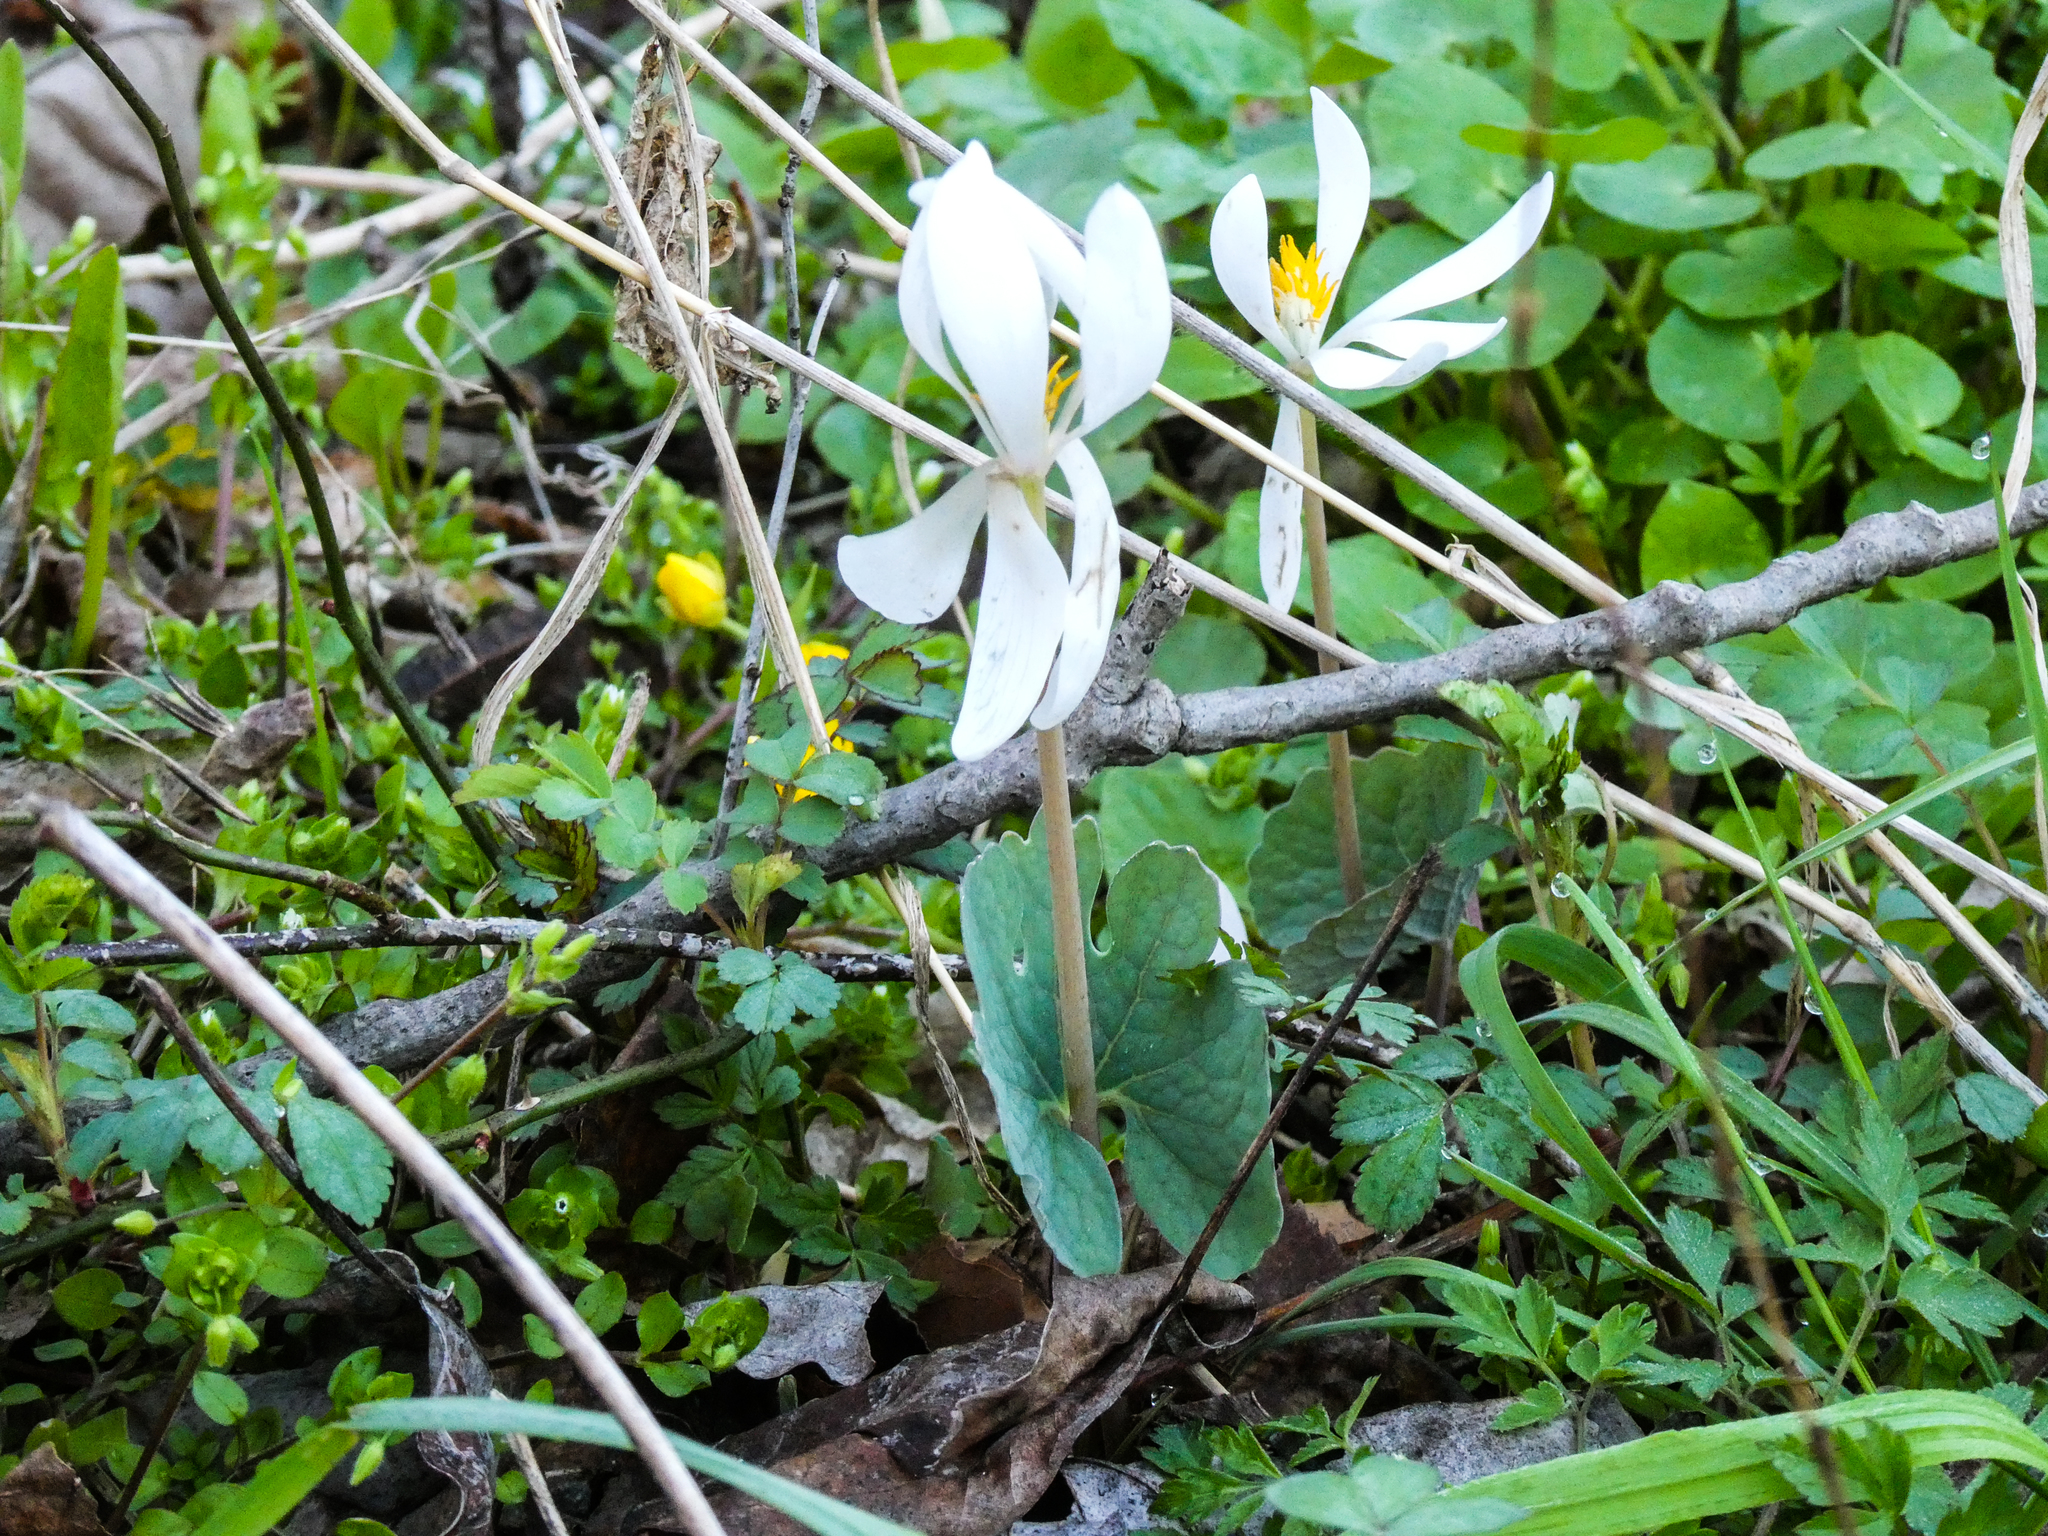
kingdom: Plantae
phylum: Tracheophyta
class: Magnoliopsida
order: Ranunculales
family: Papaveraceae
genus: Sanguinaria
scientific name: Sanguinaria canadensis
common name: Bloodroot
